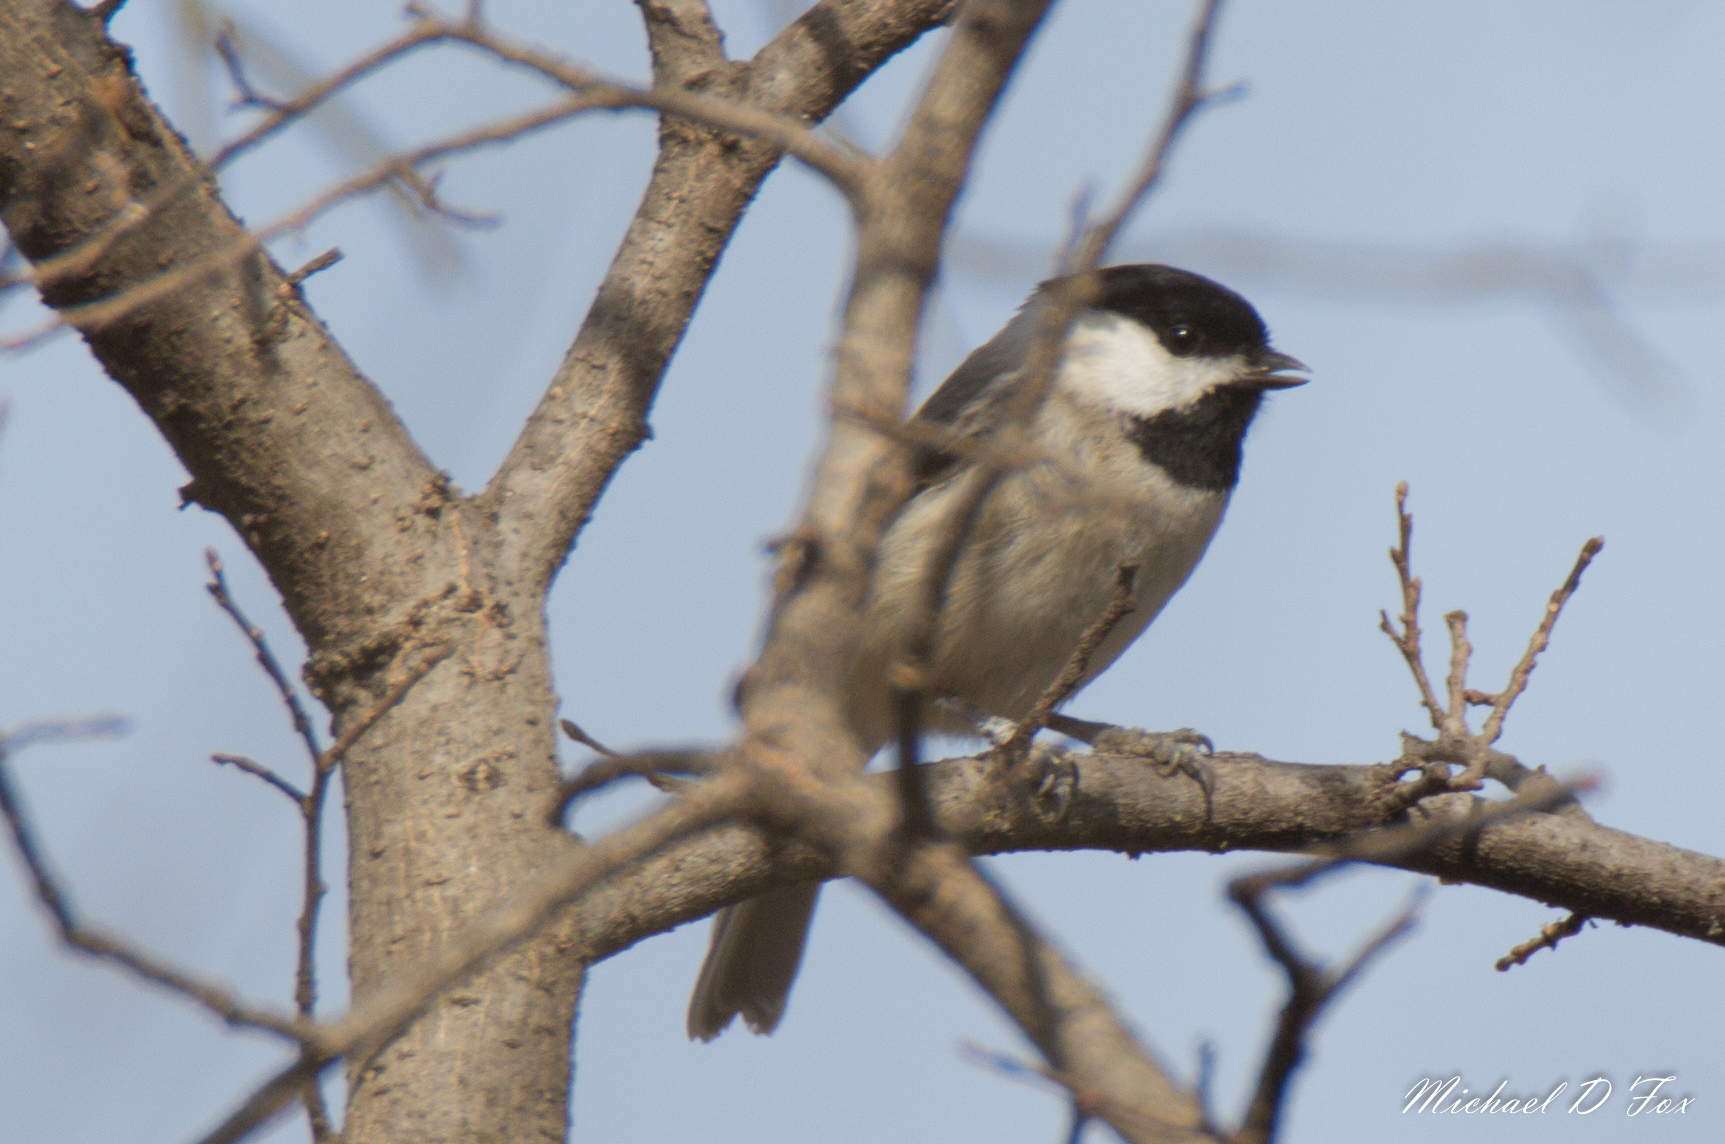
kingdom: Animalia
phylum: Chordata
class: Aves
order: Passeriformes
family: Paridae
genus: Poecile
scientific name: Poecile carolinensis
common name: Carolina chickadee
